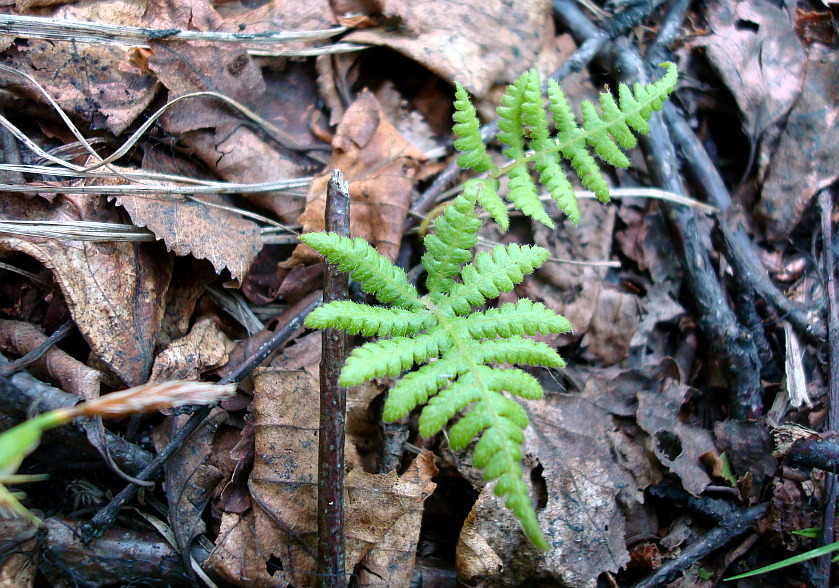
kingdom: Plantae
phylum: Tracheophyta
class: Polypodiopsida
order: Polypodiales
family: Thelypteridaceae
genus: Phegopteris
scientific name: Phegopteris connectilis
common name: Beech fern
